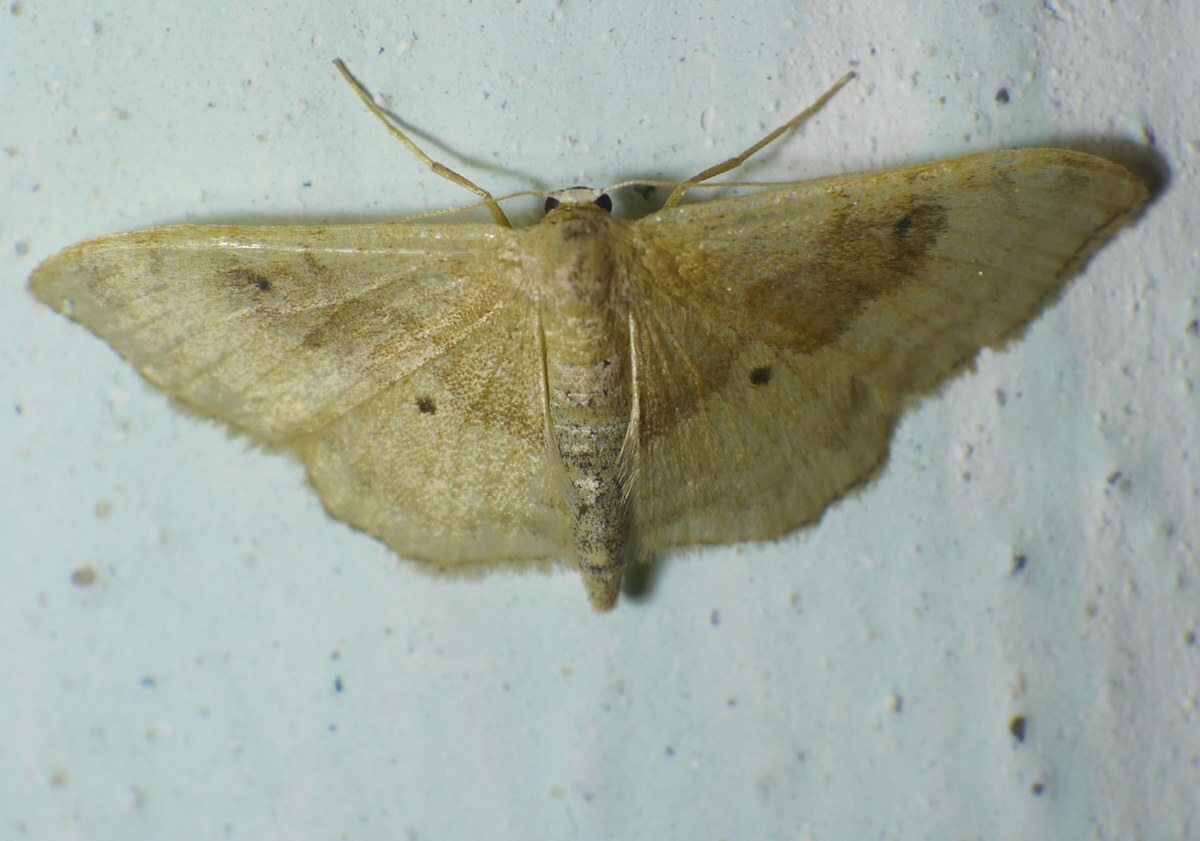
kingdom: Animalia
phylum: Arthropoda
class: Insecta
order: Lepidoptera
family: Geometridae
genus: Idaea
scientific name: Idaea degeneraria
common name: Portland ribbon wave
